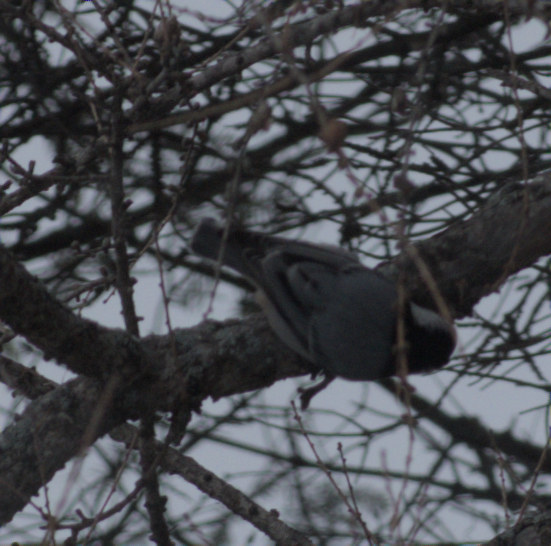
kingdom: Animalia
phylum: Chordata
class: Aves
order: Passeriformes
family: Sittidae
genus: Sitta
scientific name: Sitta carolinensis
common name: White-breasted nuthatch
